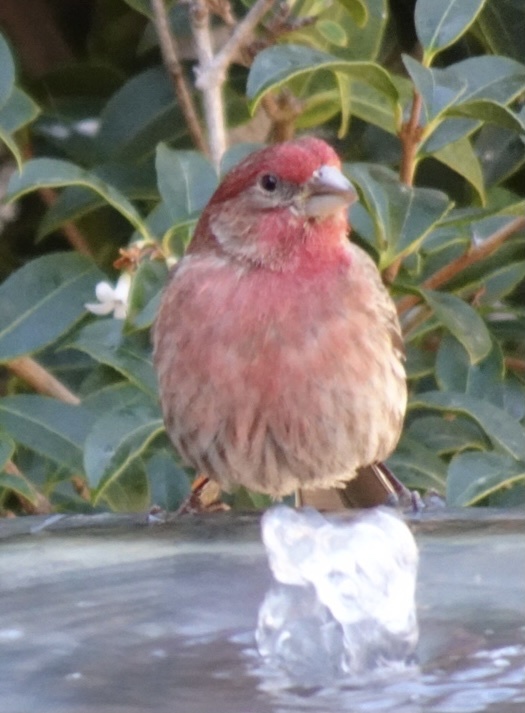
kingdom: Animalia
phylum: Chordata
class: Aves
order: Passeriformes
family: Fringillidae
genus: Haemorhous
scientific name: Haemorhous mexicanus
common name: House finch
